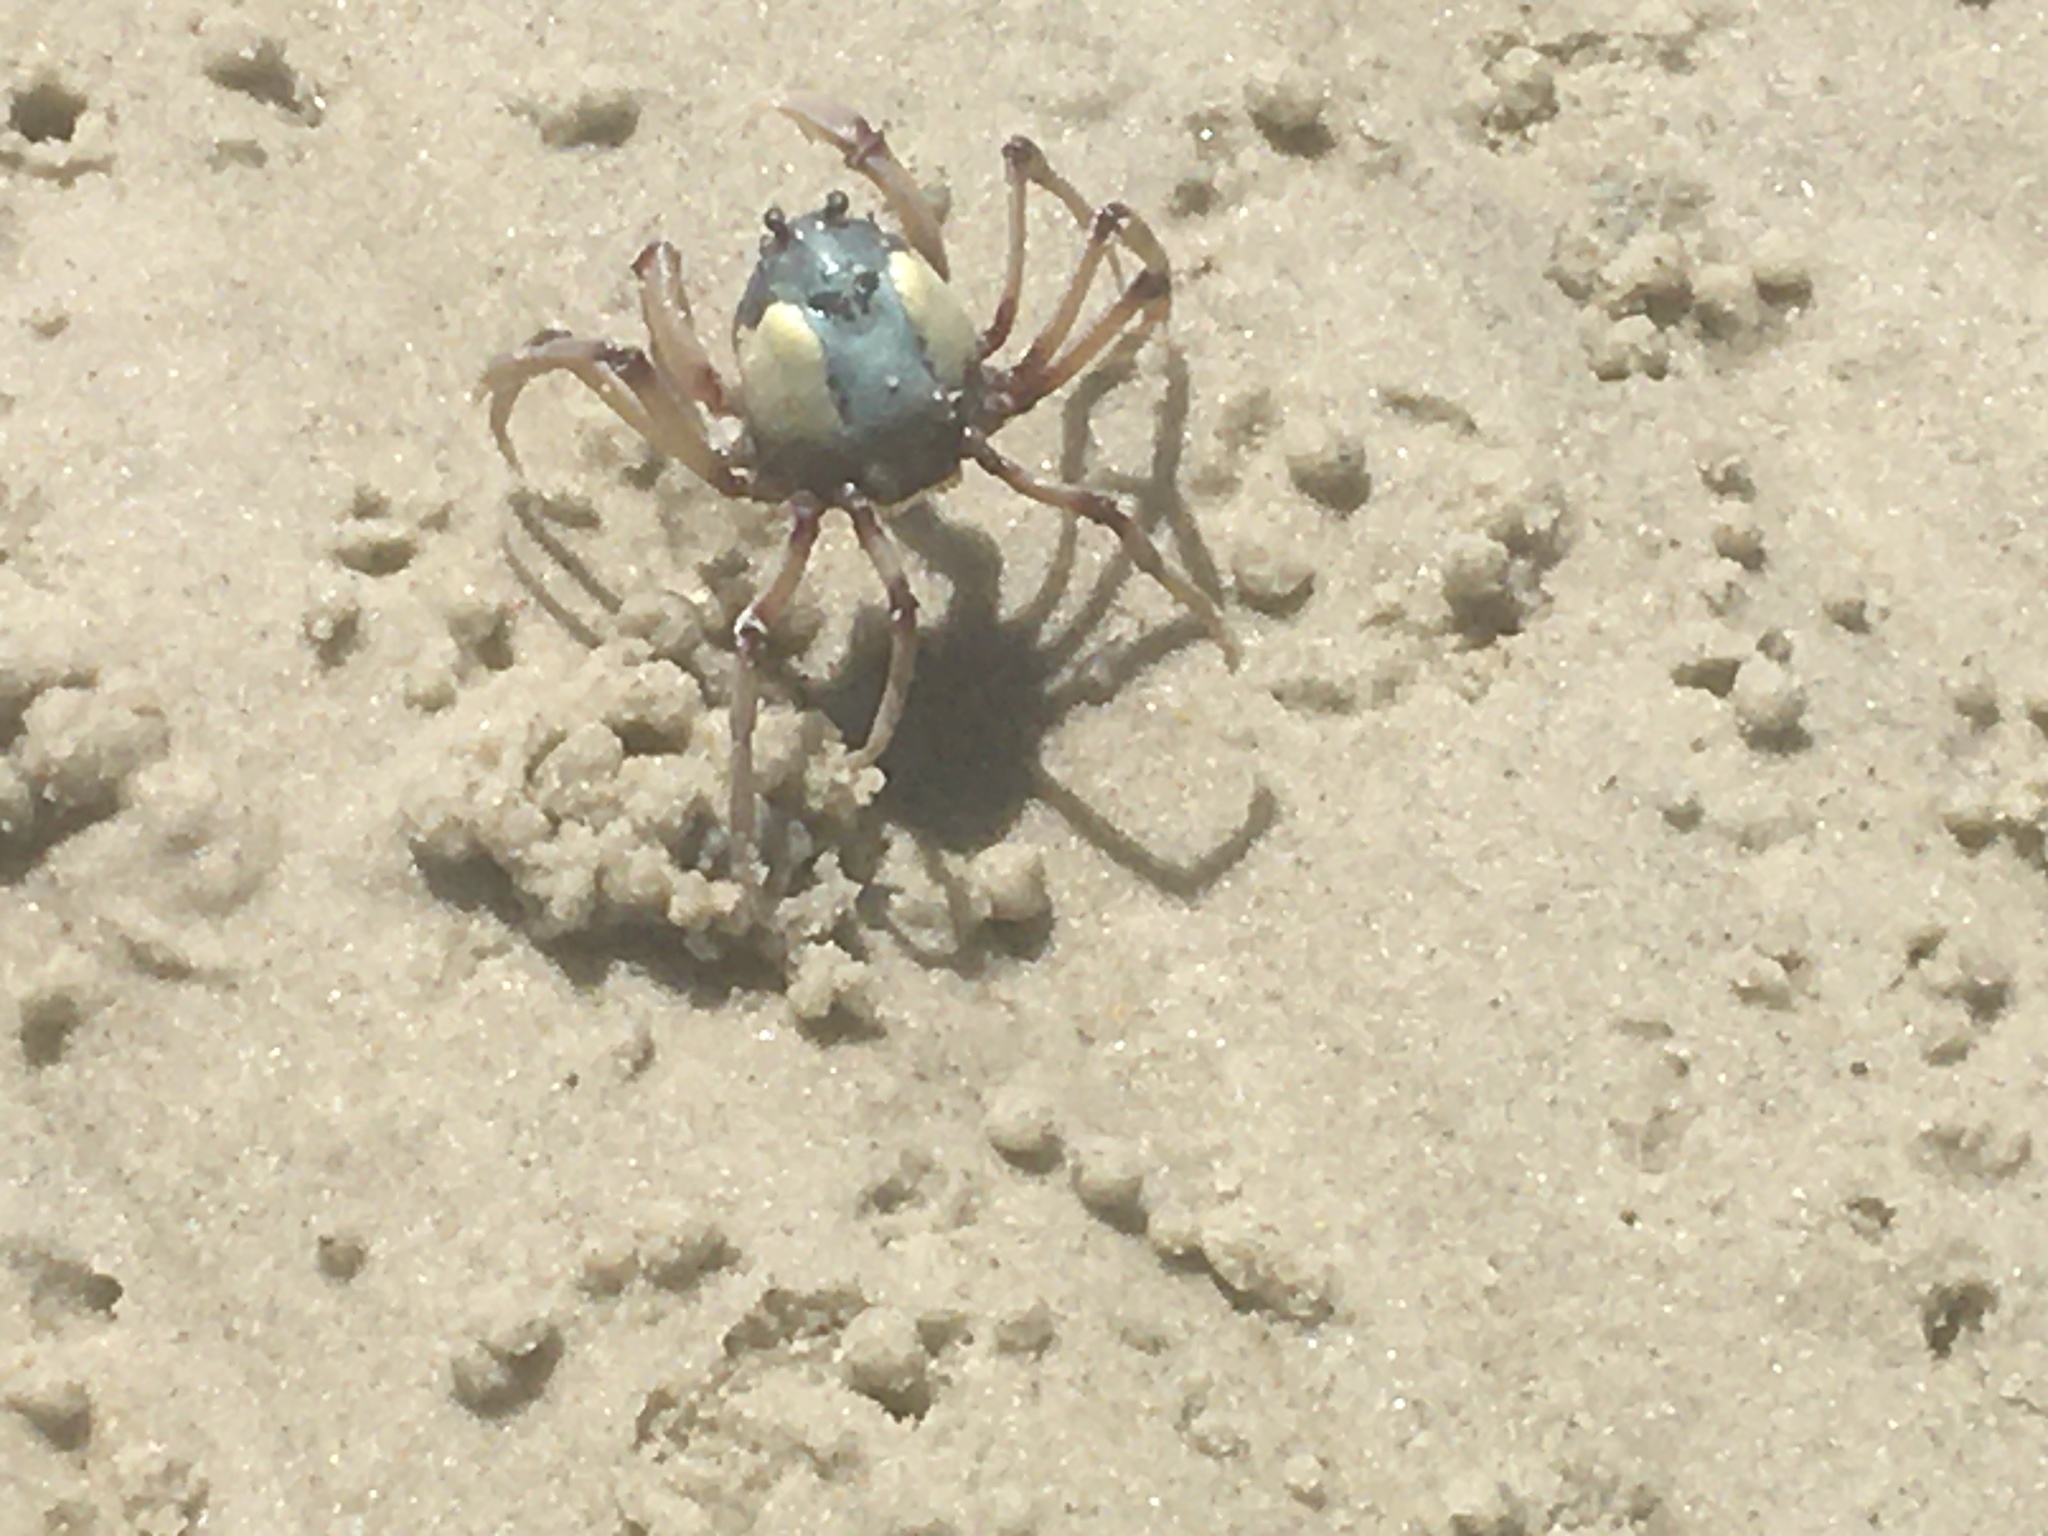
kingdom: Animalia
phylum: Arthropoda
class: Malacostraca
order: Decapoda
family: Mictyridae
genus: Mictyris
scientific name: Mictyris longicarpus
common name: Light-blue soldier crab
